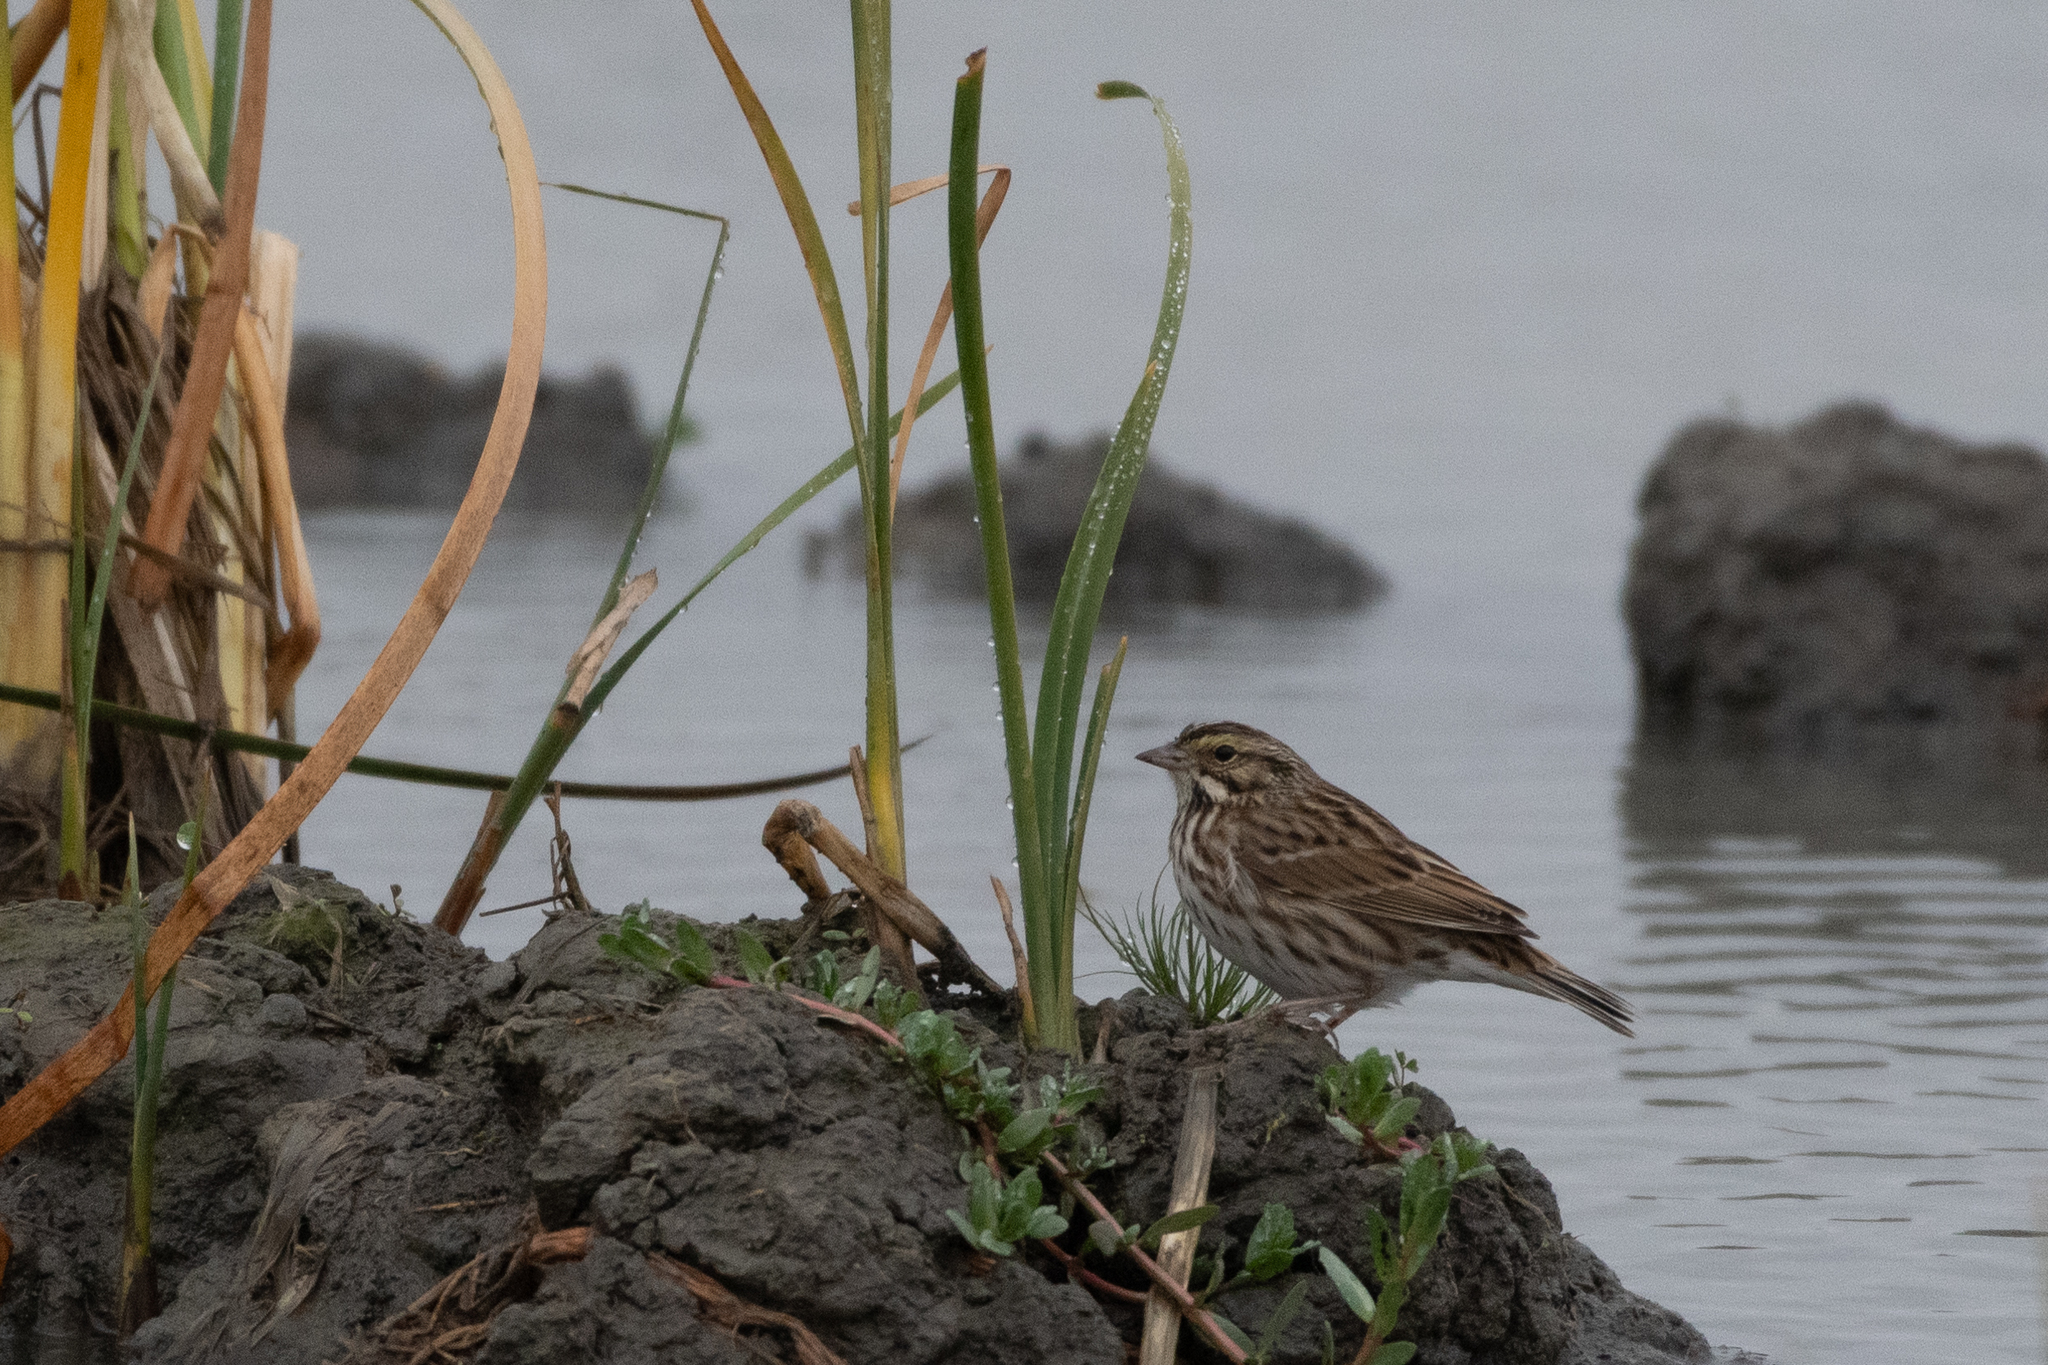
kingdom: Animalia
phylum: Chordata
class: Aves
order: Passeriformes
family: Passerellidae
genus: Passerculus
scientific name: Passerculus sandwichensis
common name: Savannah sparrow
